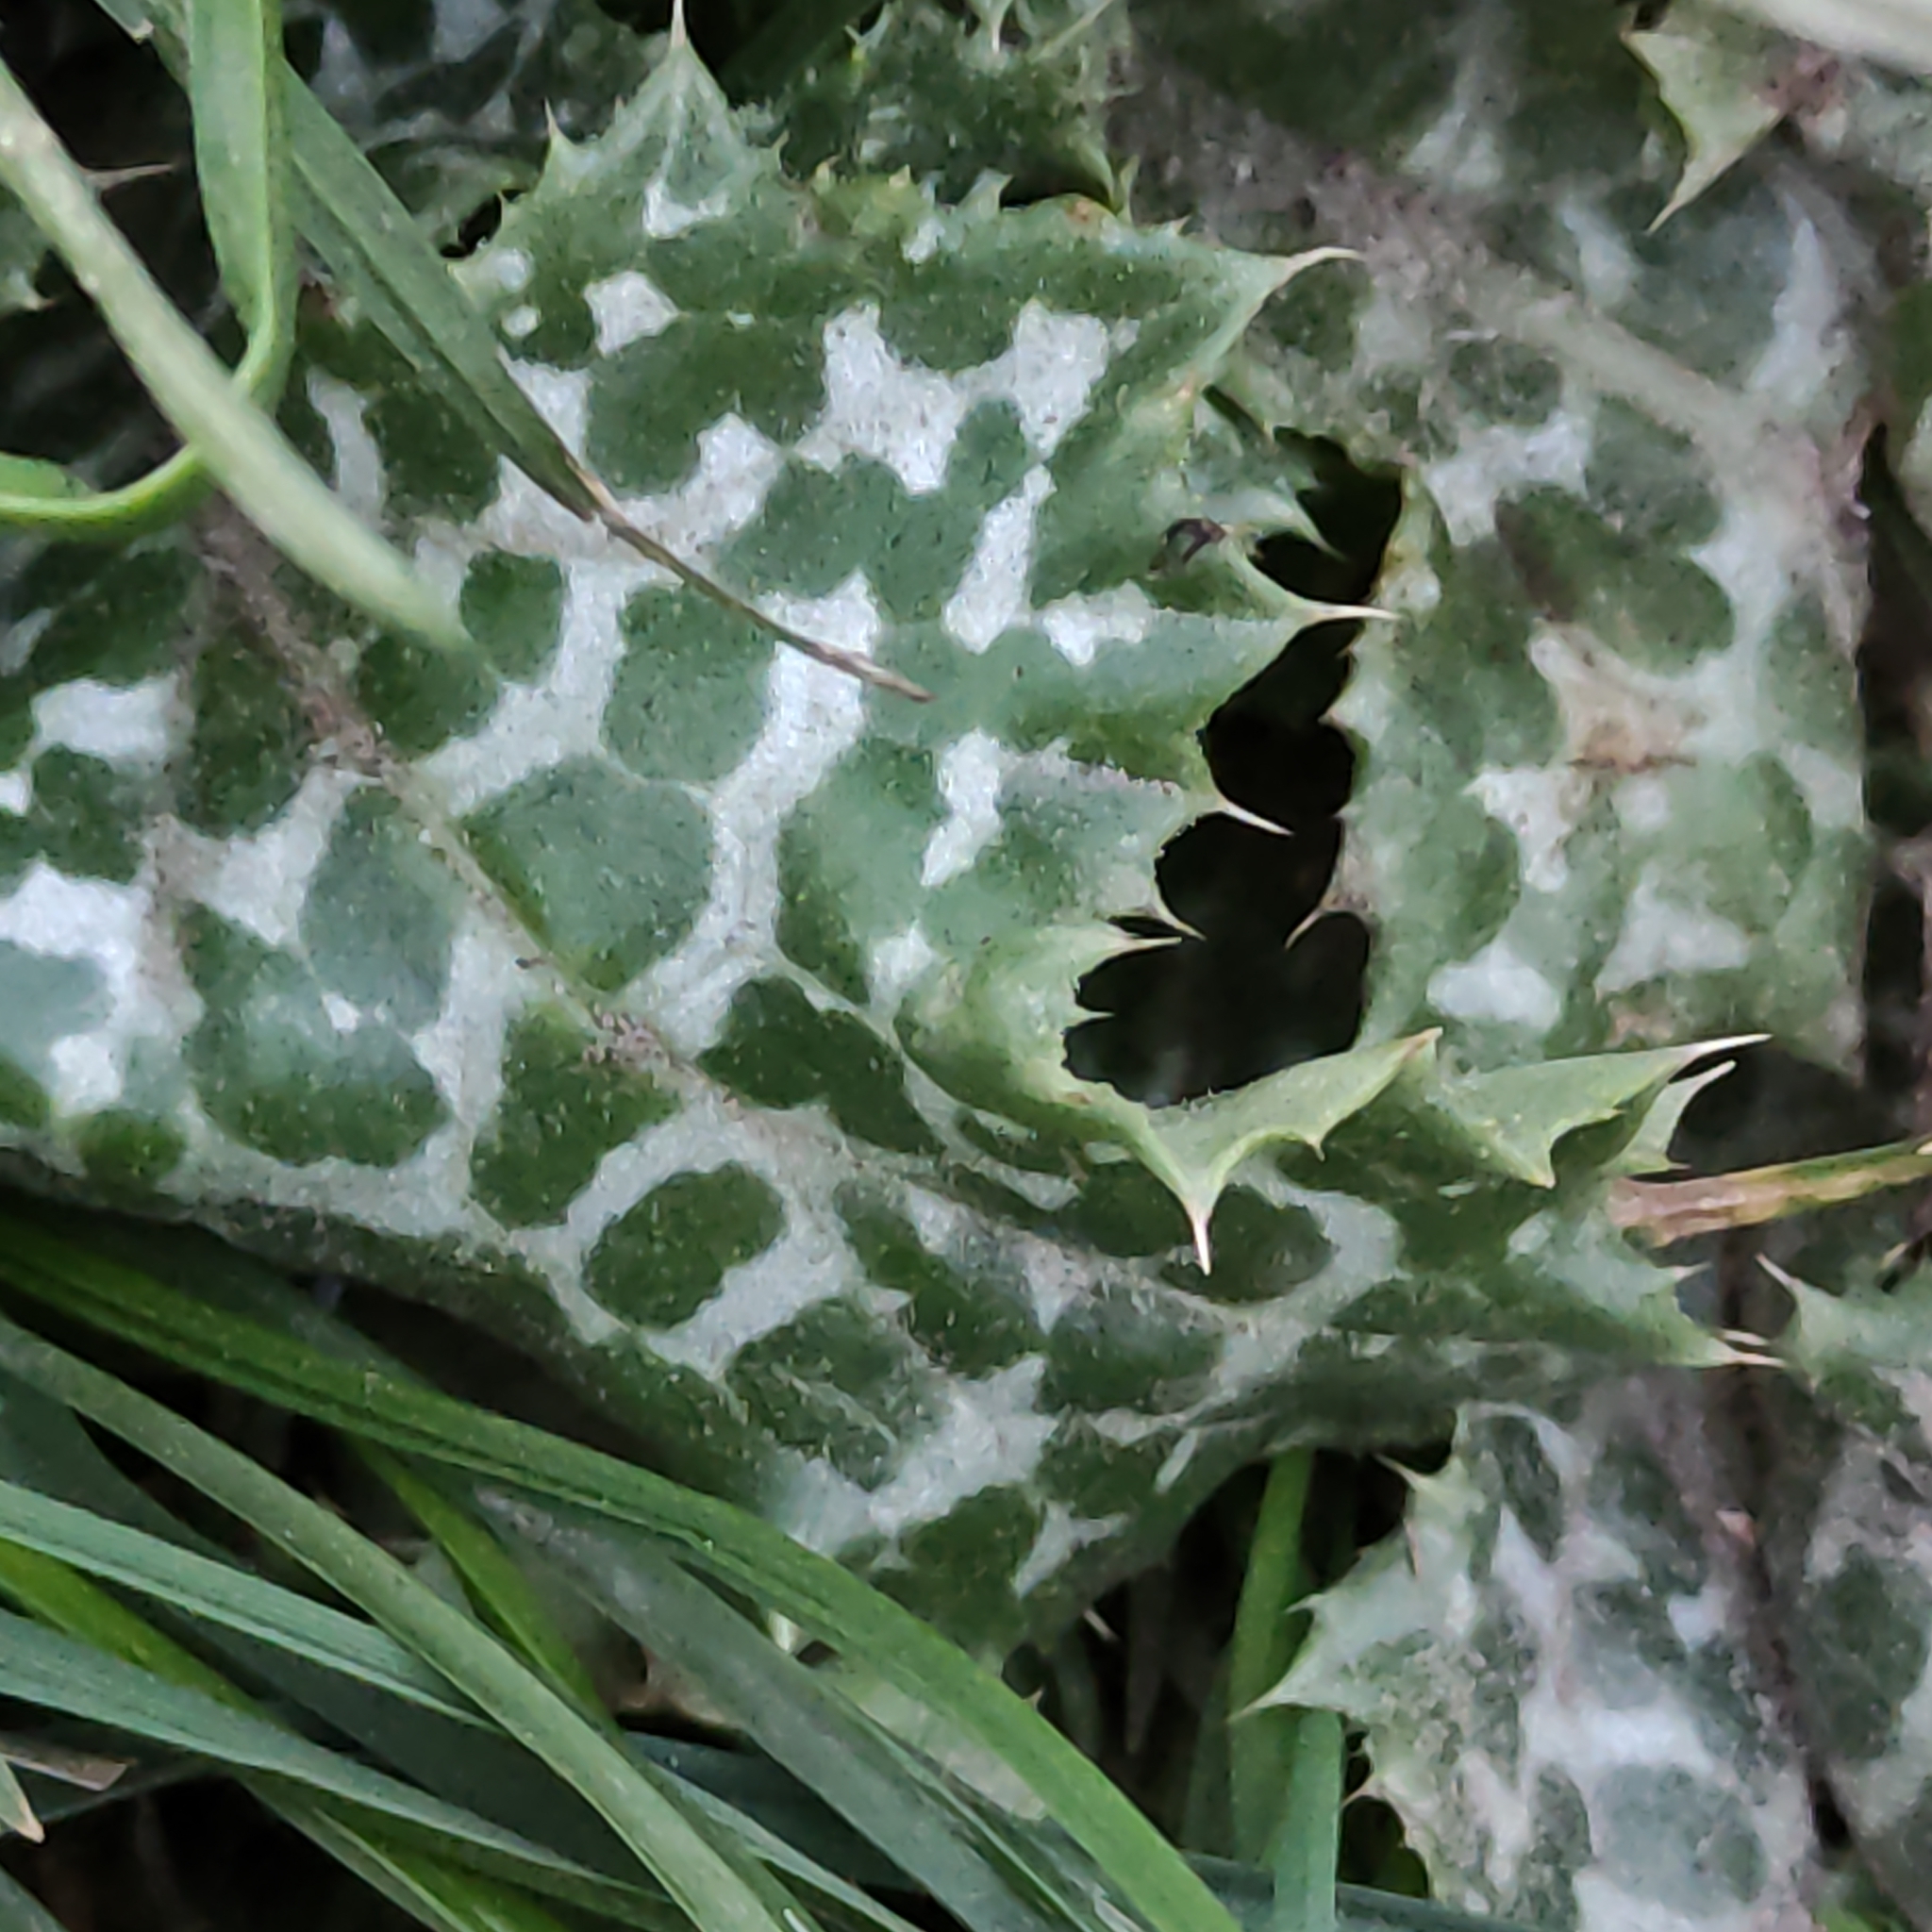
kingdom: Plantae
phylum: Tracheophyta
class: Magnoliopsida
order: Asterales
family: Asteraceae
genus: Silybum
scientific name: Silybum marianum
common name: Milk thistle
